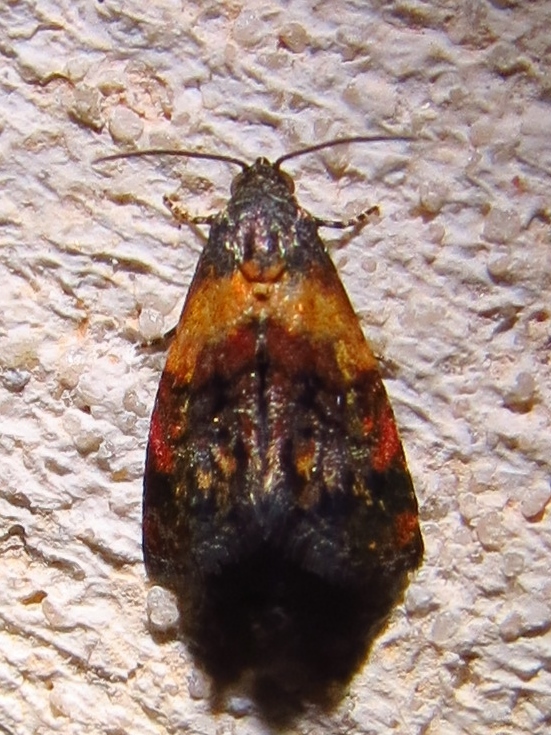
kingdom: Animalia
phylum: Arthropoda
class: Insecta
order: Lepidoptera
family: Noctuidae
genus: Tripudia
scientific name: Tripudia flavofasciata
